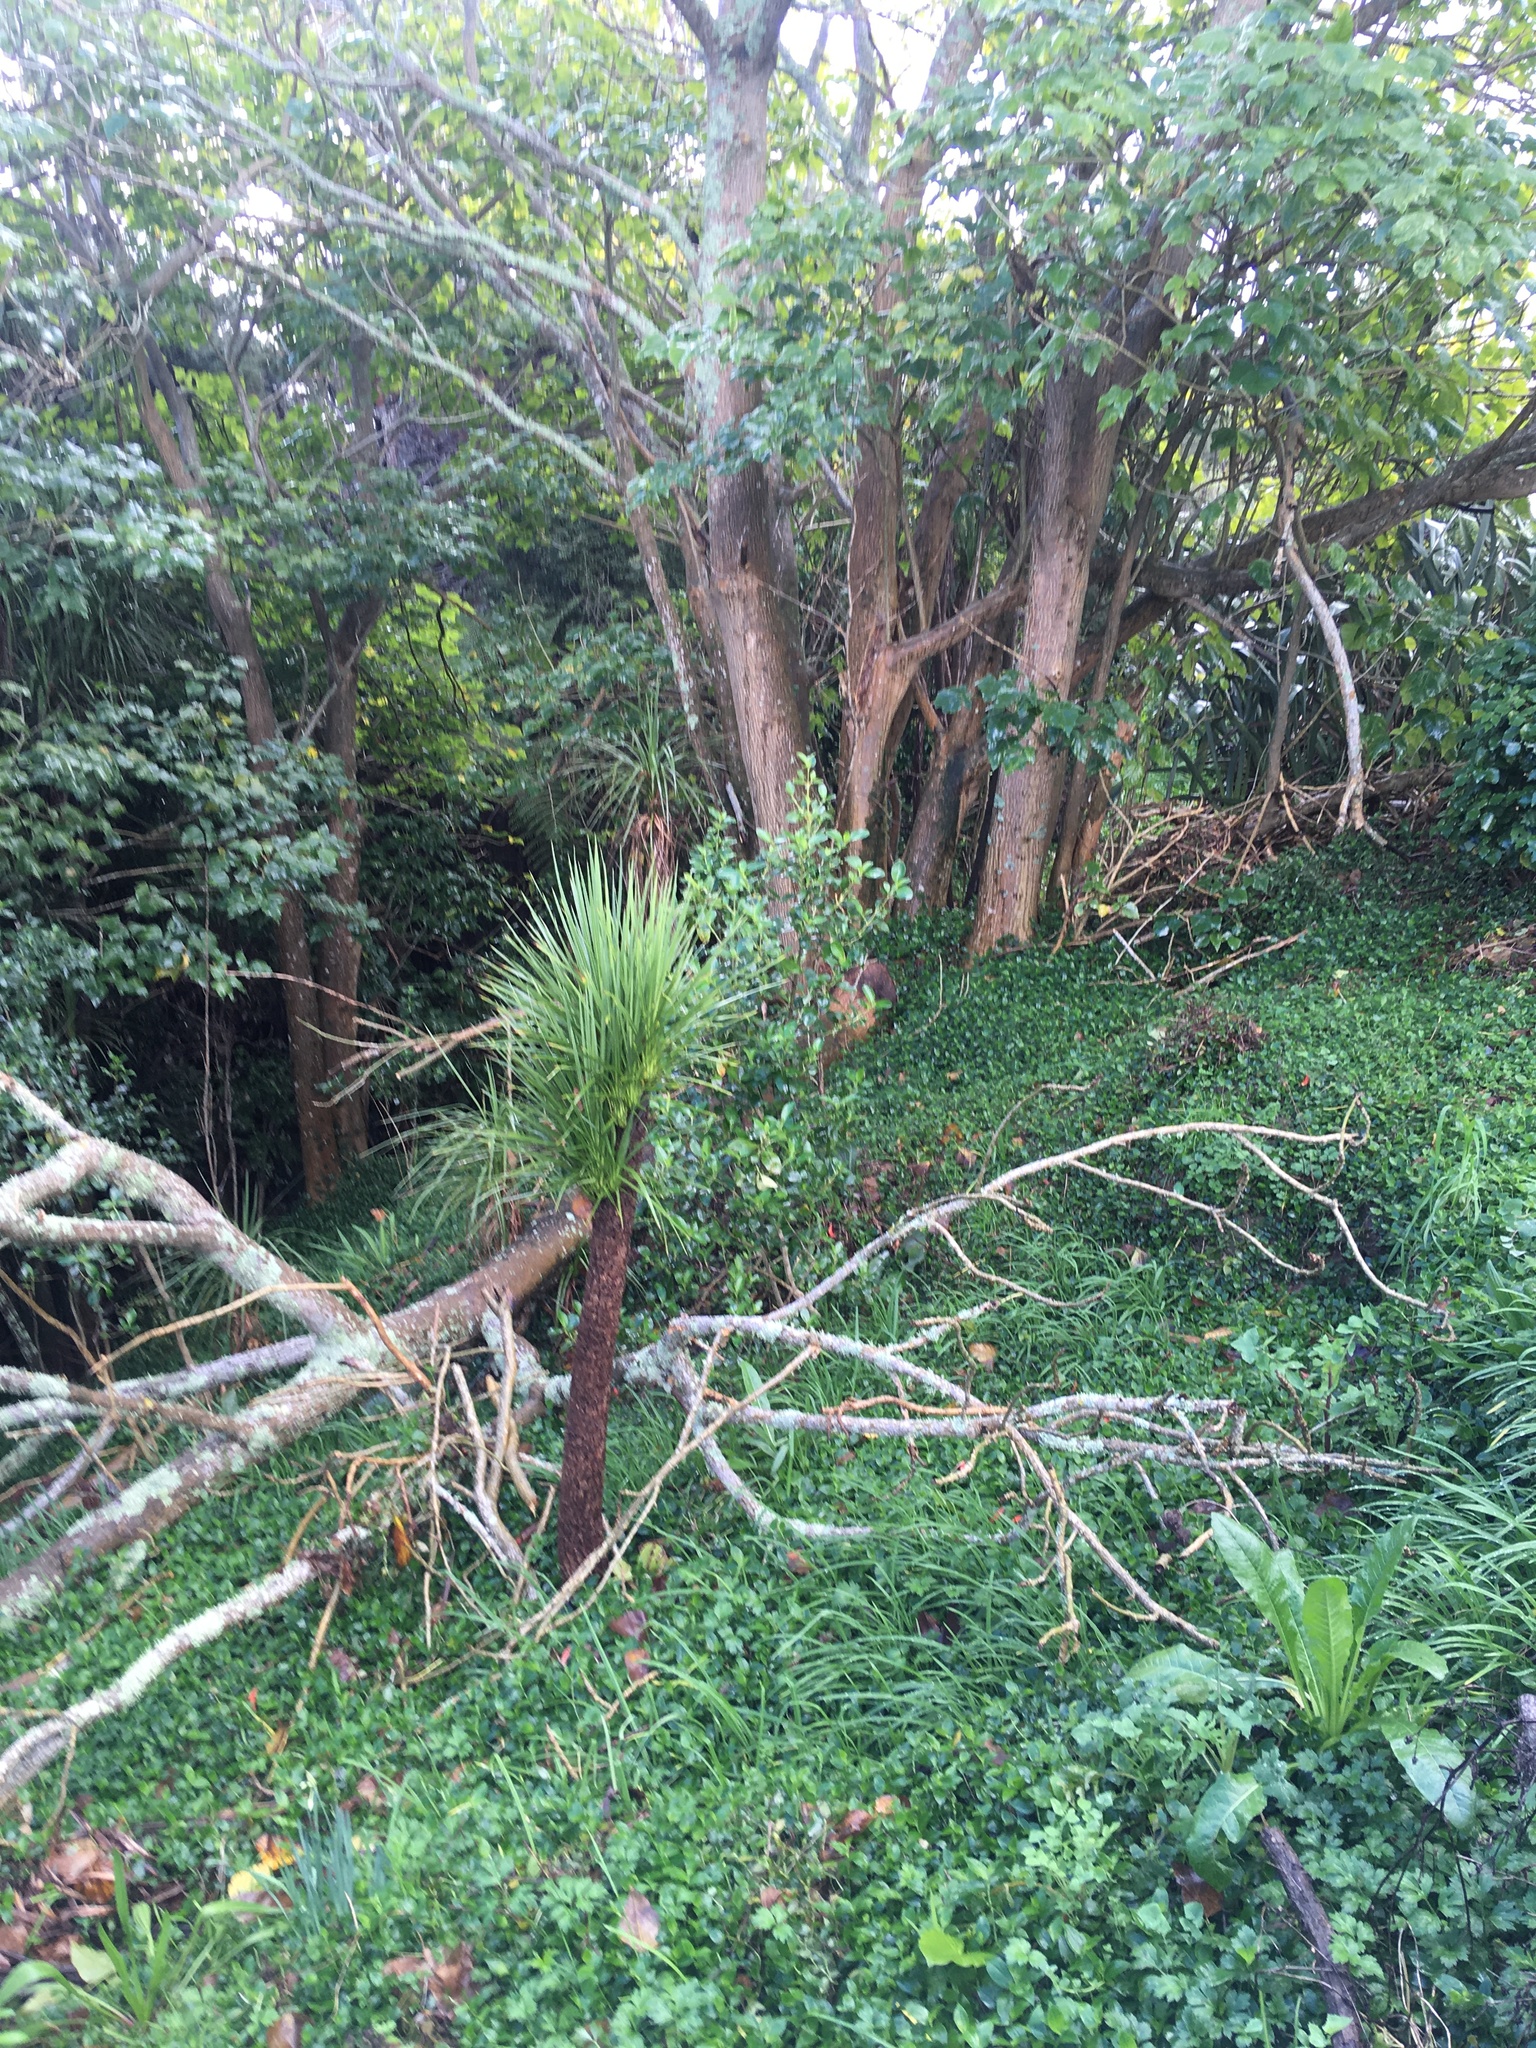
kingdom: Plantae
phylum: Tracheophyta
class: Liliopsida
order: Commelinales
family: Commelinaceae
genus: Tradescantia
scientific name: Tradescantia fluminensis
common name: Wandering-jew
